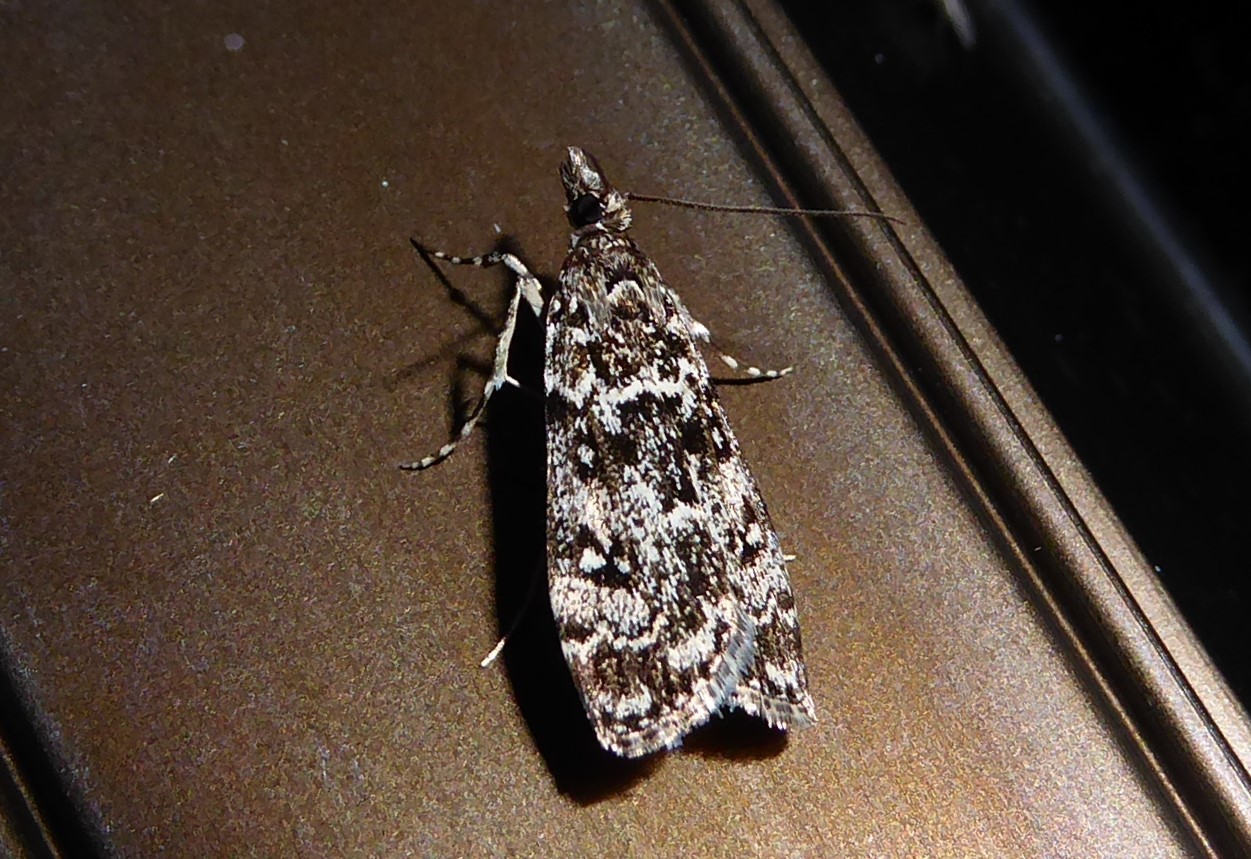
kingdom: Animalia
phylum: Arthropoda
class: Insecta
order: Lepidoptera
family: Crambidae
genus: Eudonia
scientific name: Eudonia philerga
